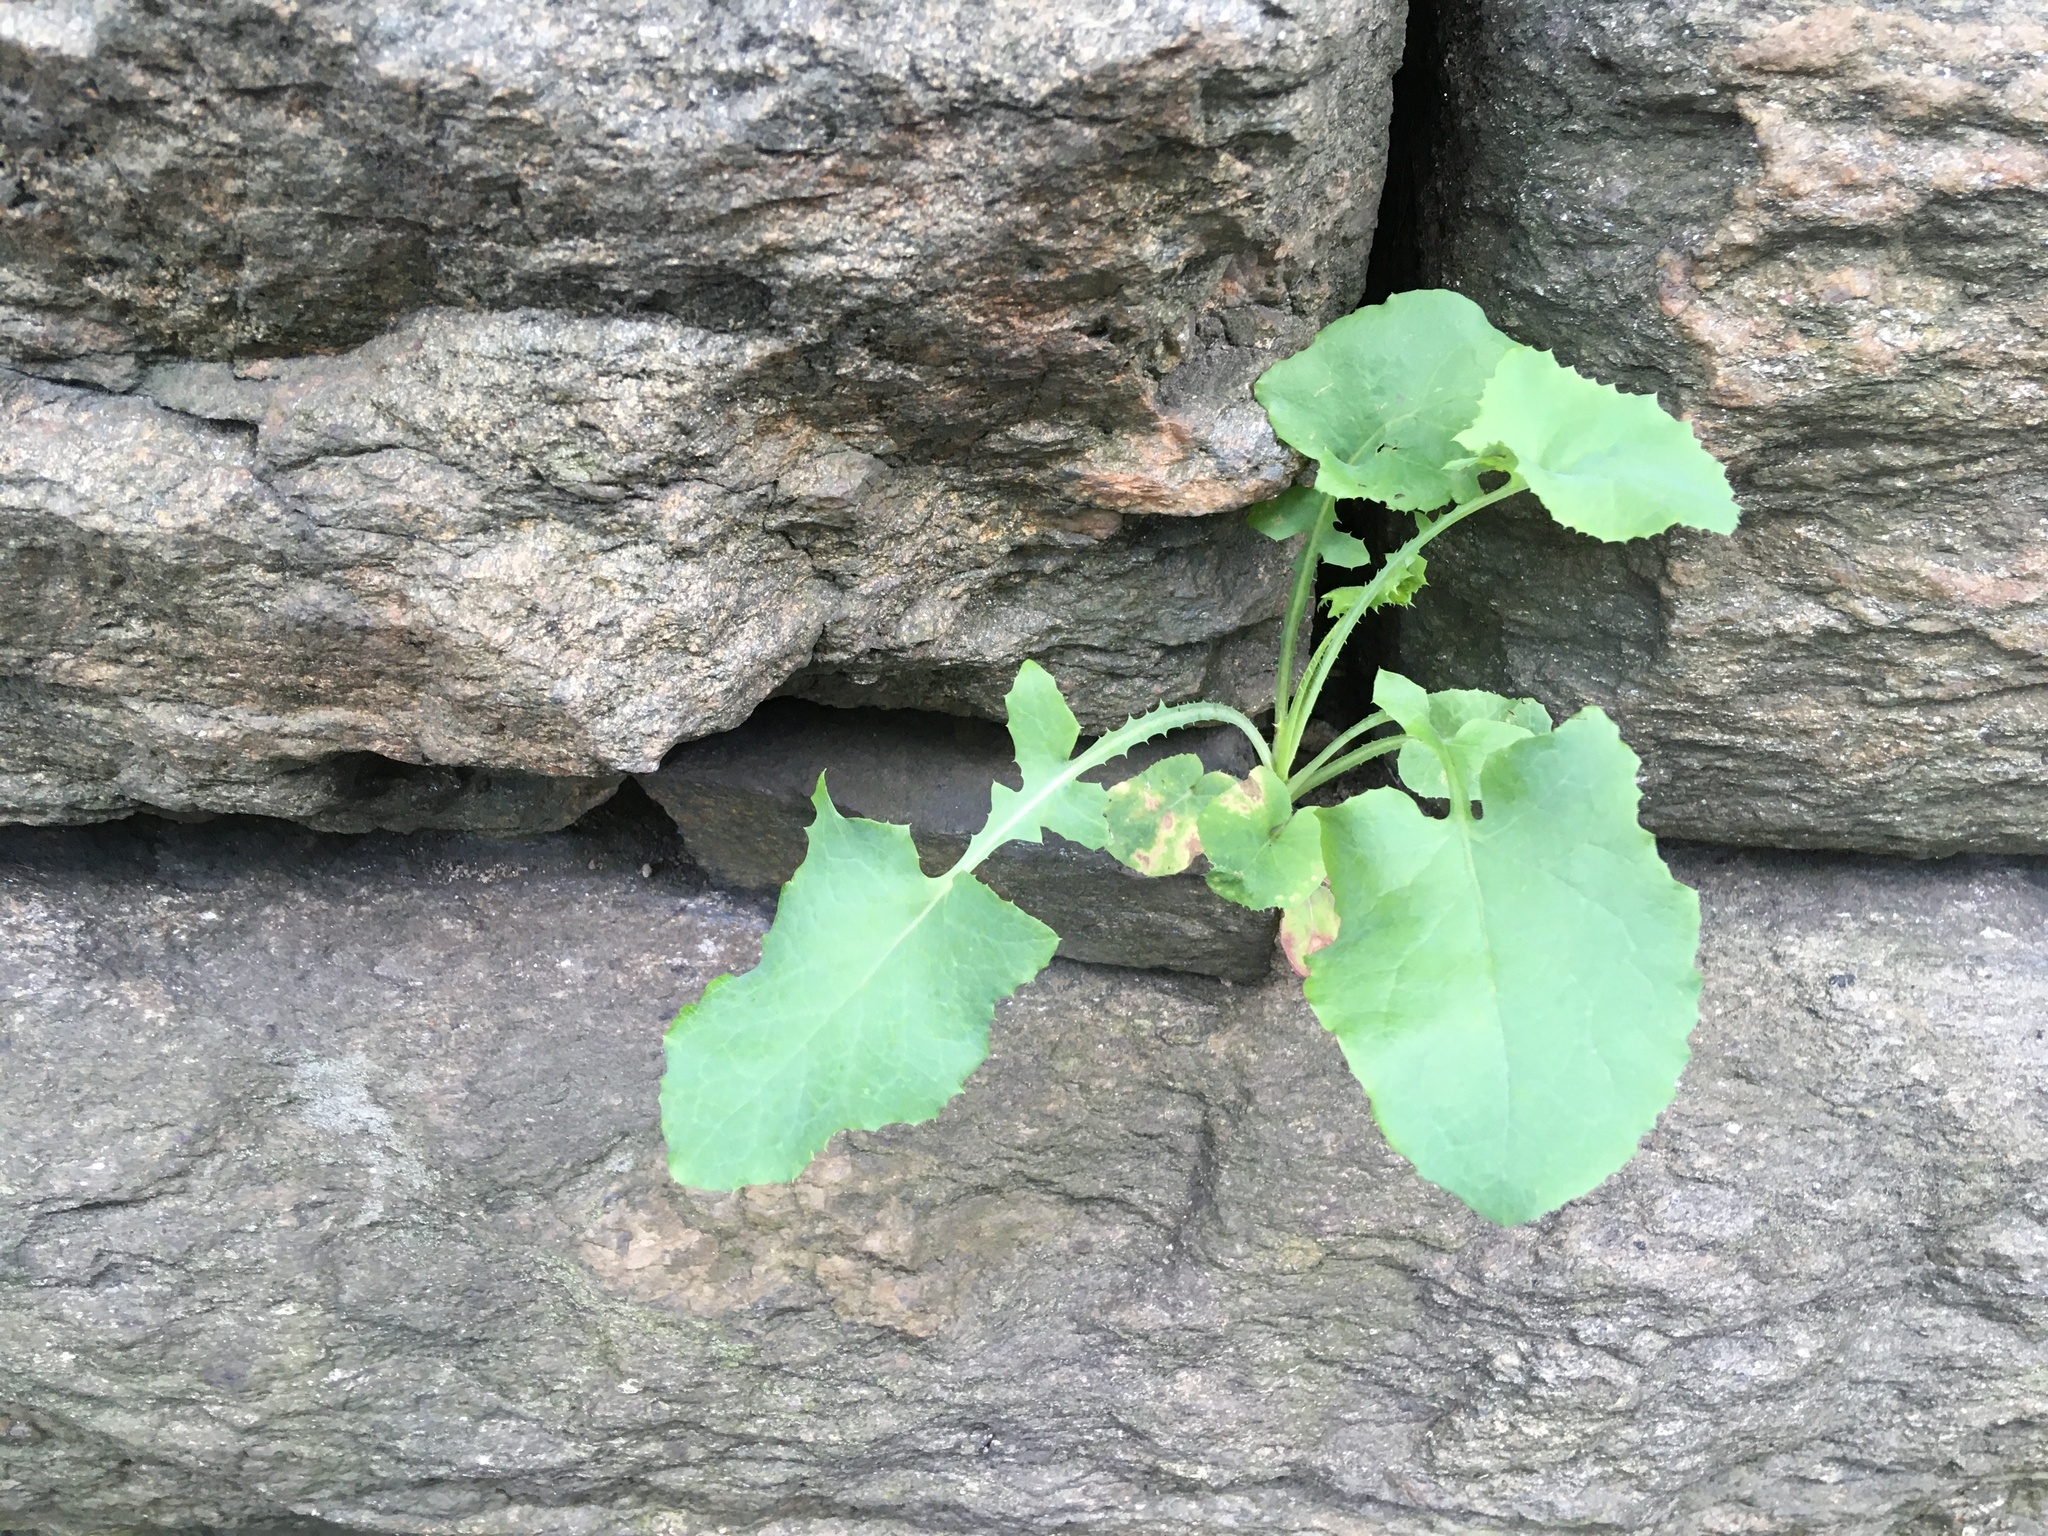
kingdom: Plantae
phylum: Tracheophyta
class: Magnoliopsida
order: Asterales
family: Asteraceae
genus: Sonchus
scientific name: Sonchus oleraceus
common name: Common sowthistle
